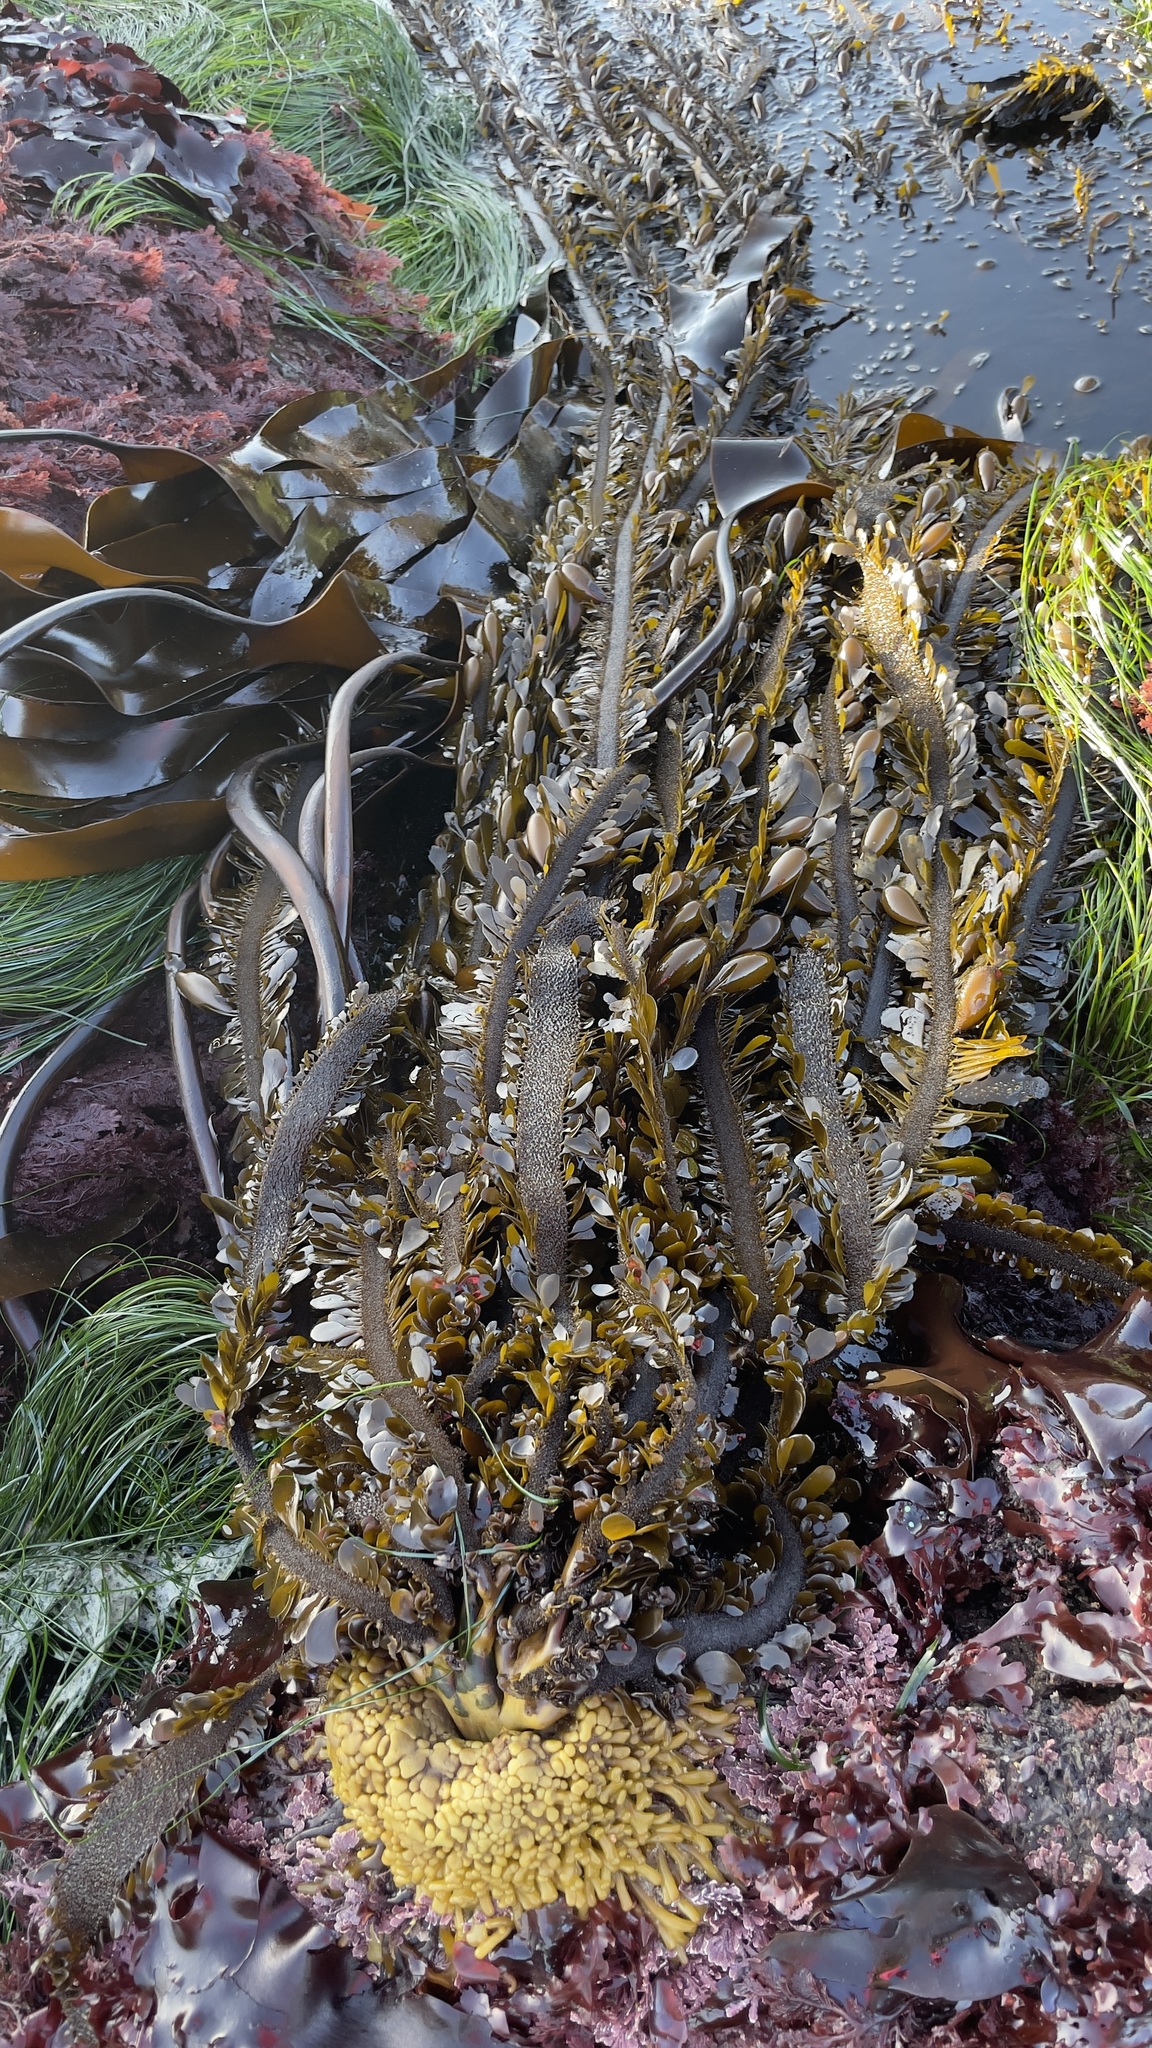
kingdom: Chromista
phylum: Ochrophyta
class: Phaeophyceae
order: Laminariales
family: Lessoniaceae
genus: Egregia
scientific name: Egregia menziesii
